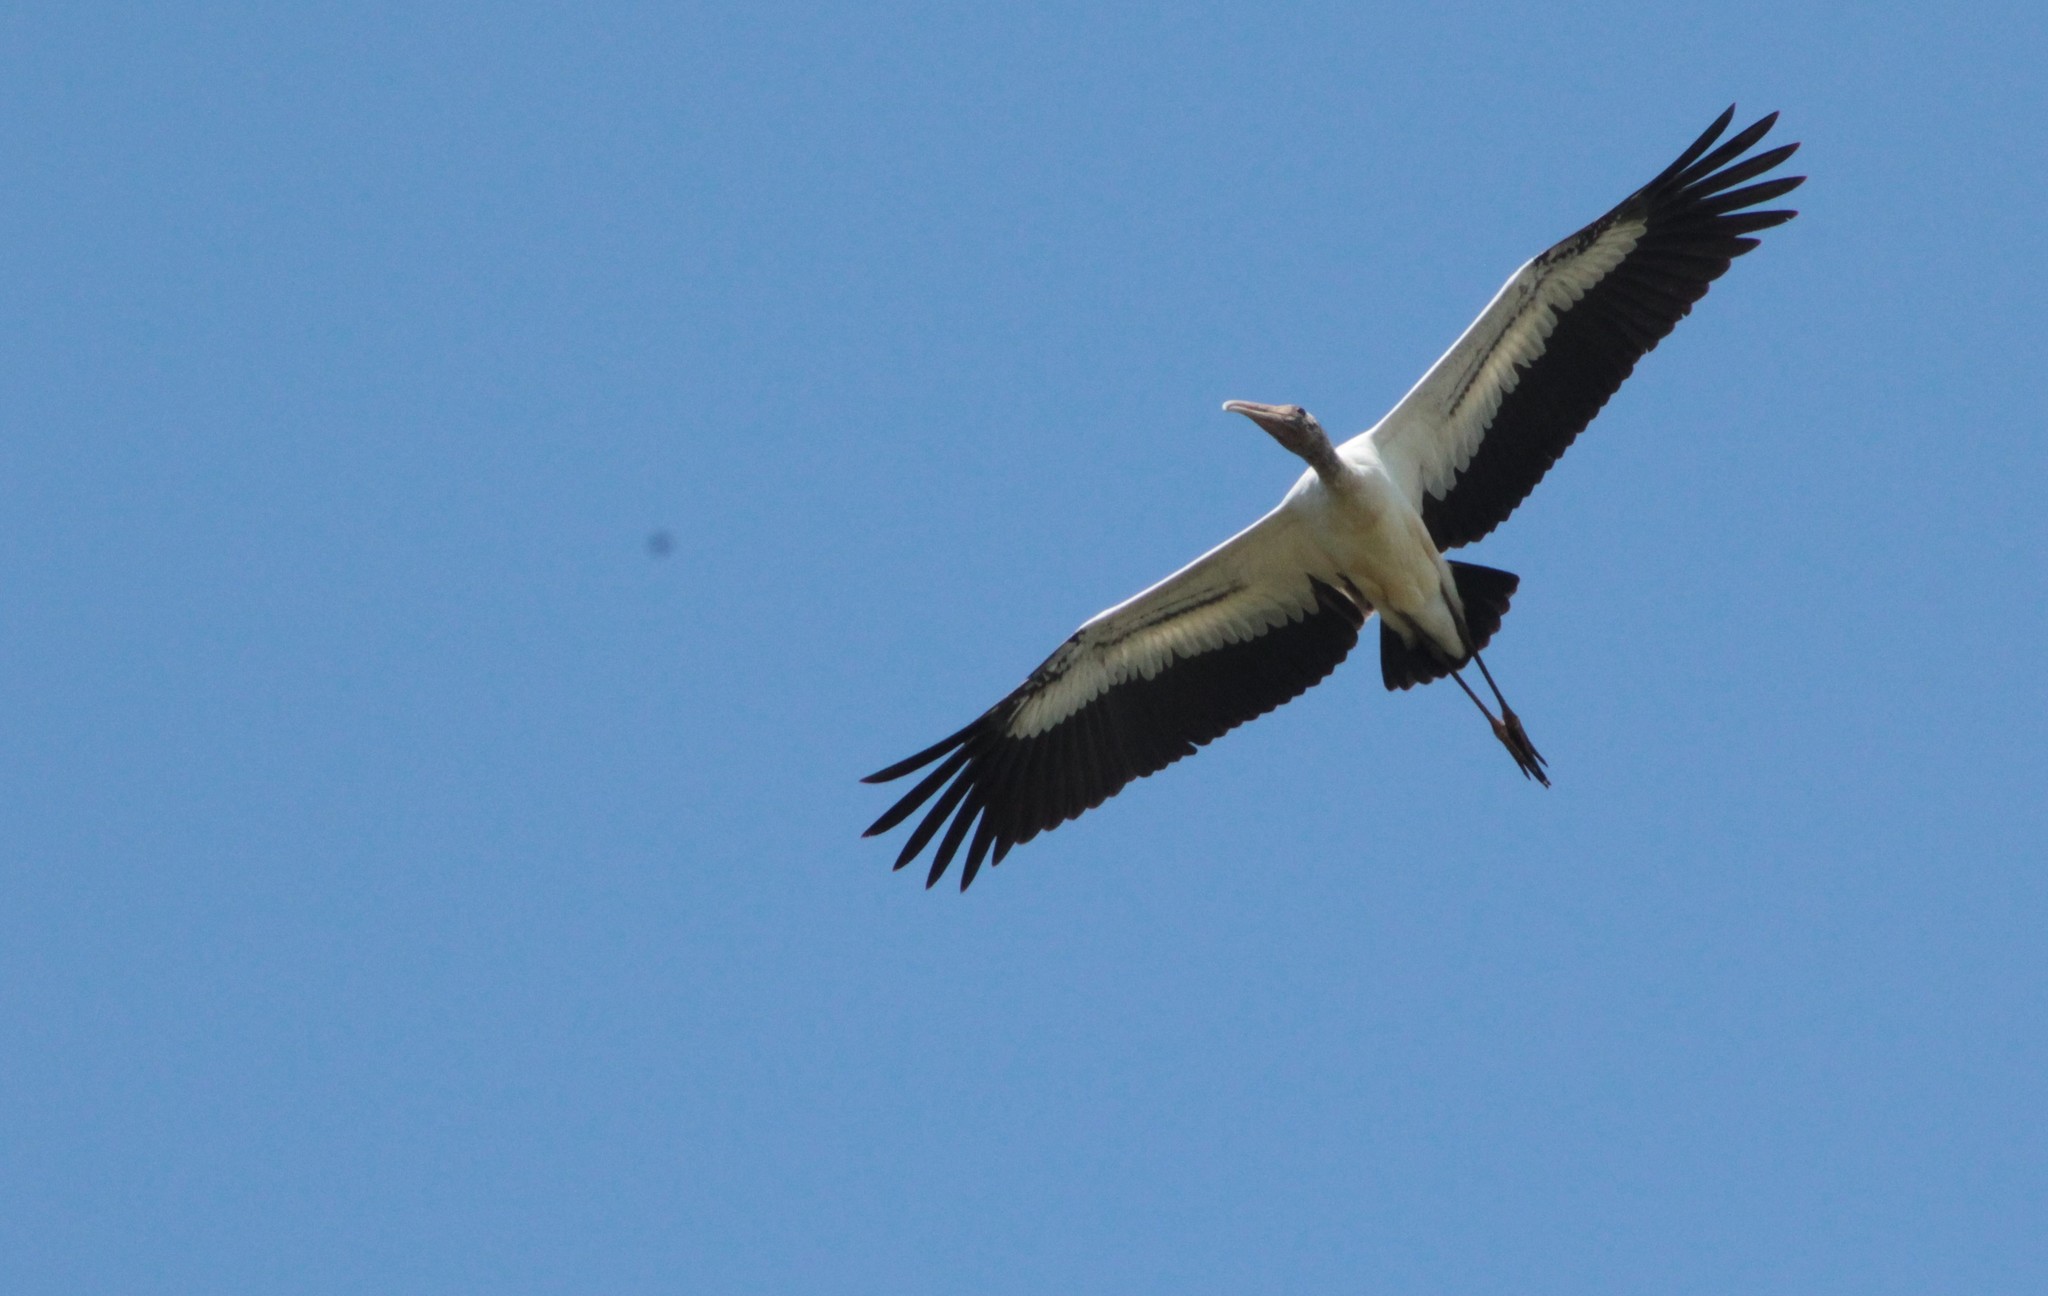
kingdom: Animalia
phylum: Chordata
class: Aves
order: Ciconiiformes
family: Ciconiidae
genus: Mycteria
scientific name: Mycteria americana
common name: Wood stork
